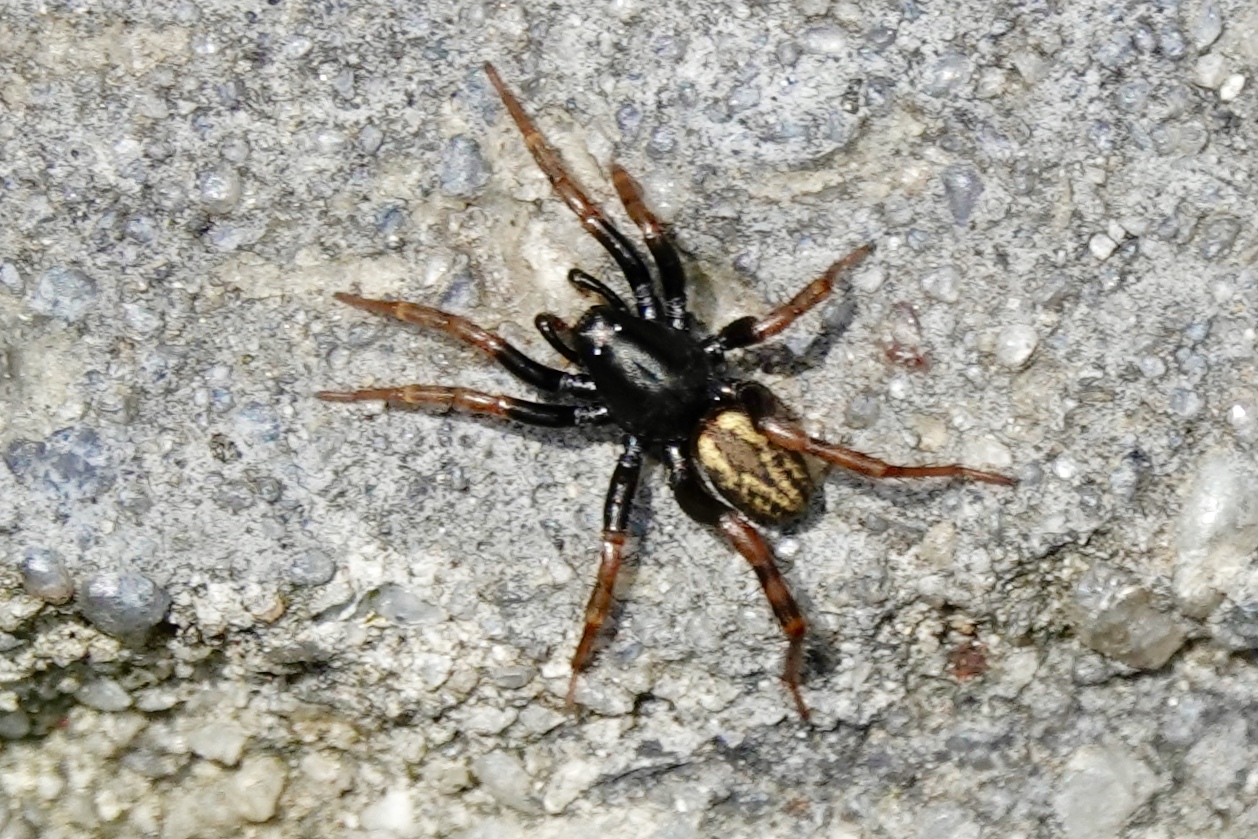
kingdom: Animalia
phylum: Arthropoda
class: Arachnida
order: Araneae
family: Lycosidae
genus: Allocosa
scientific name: Allocosa funerea
